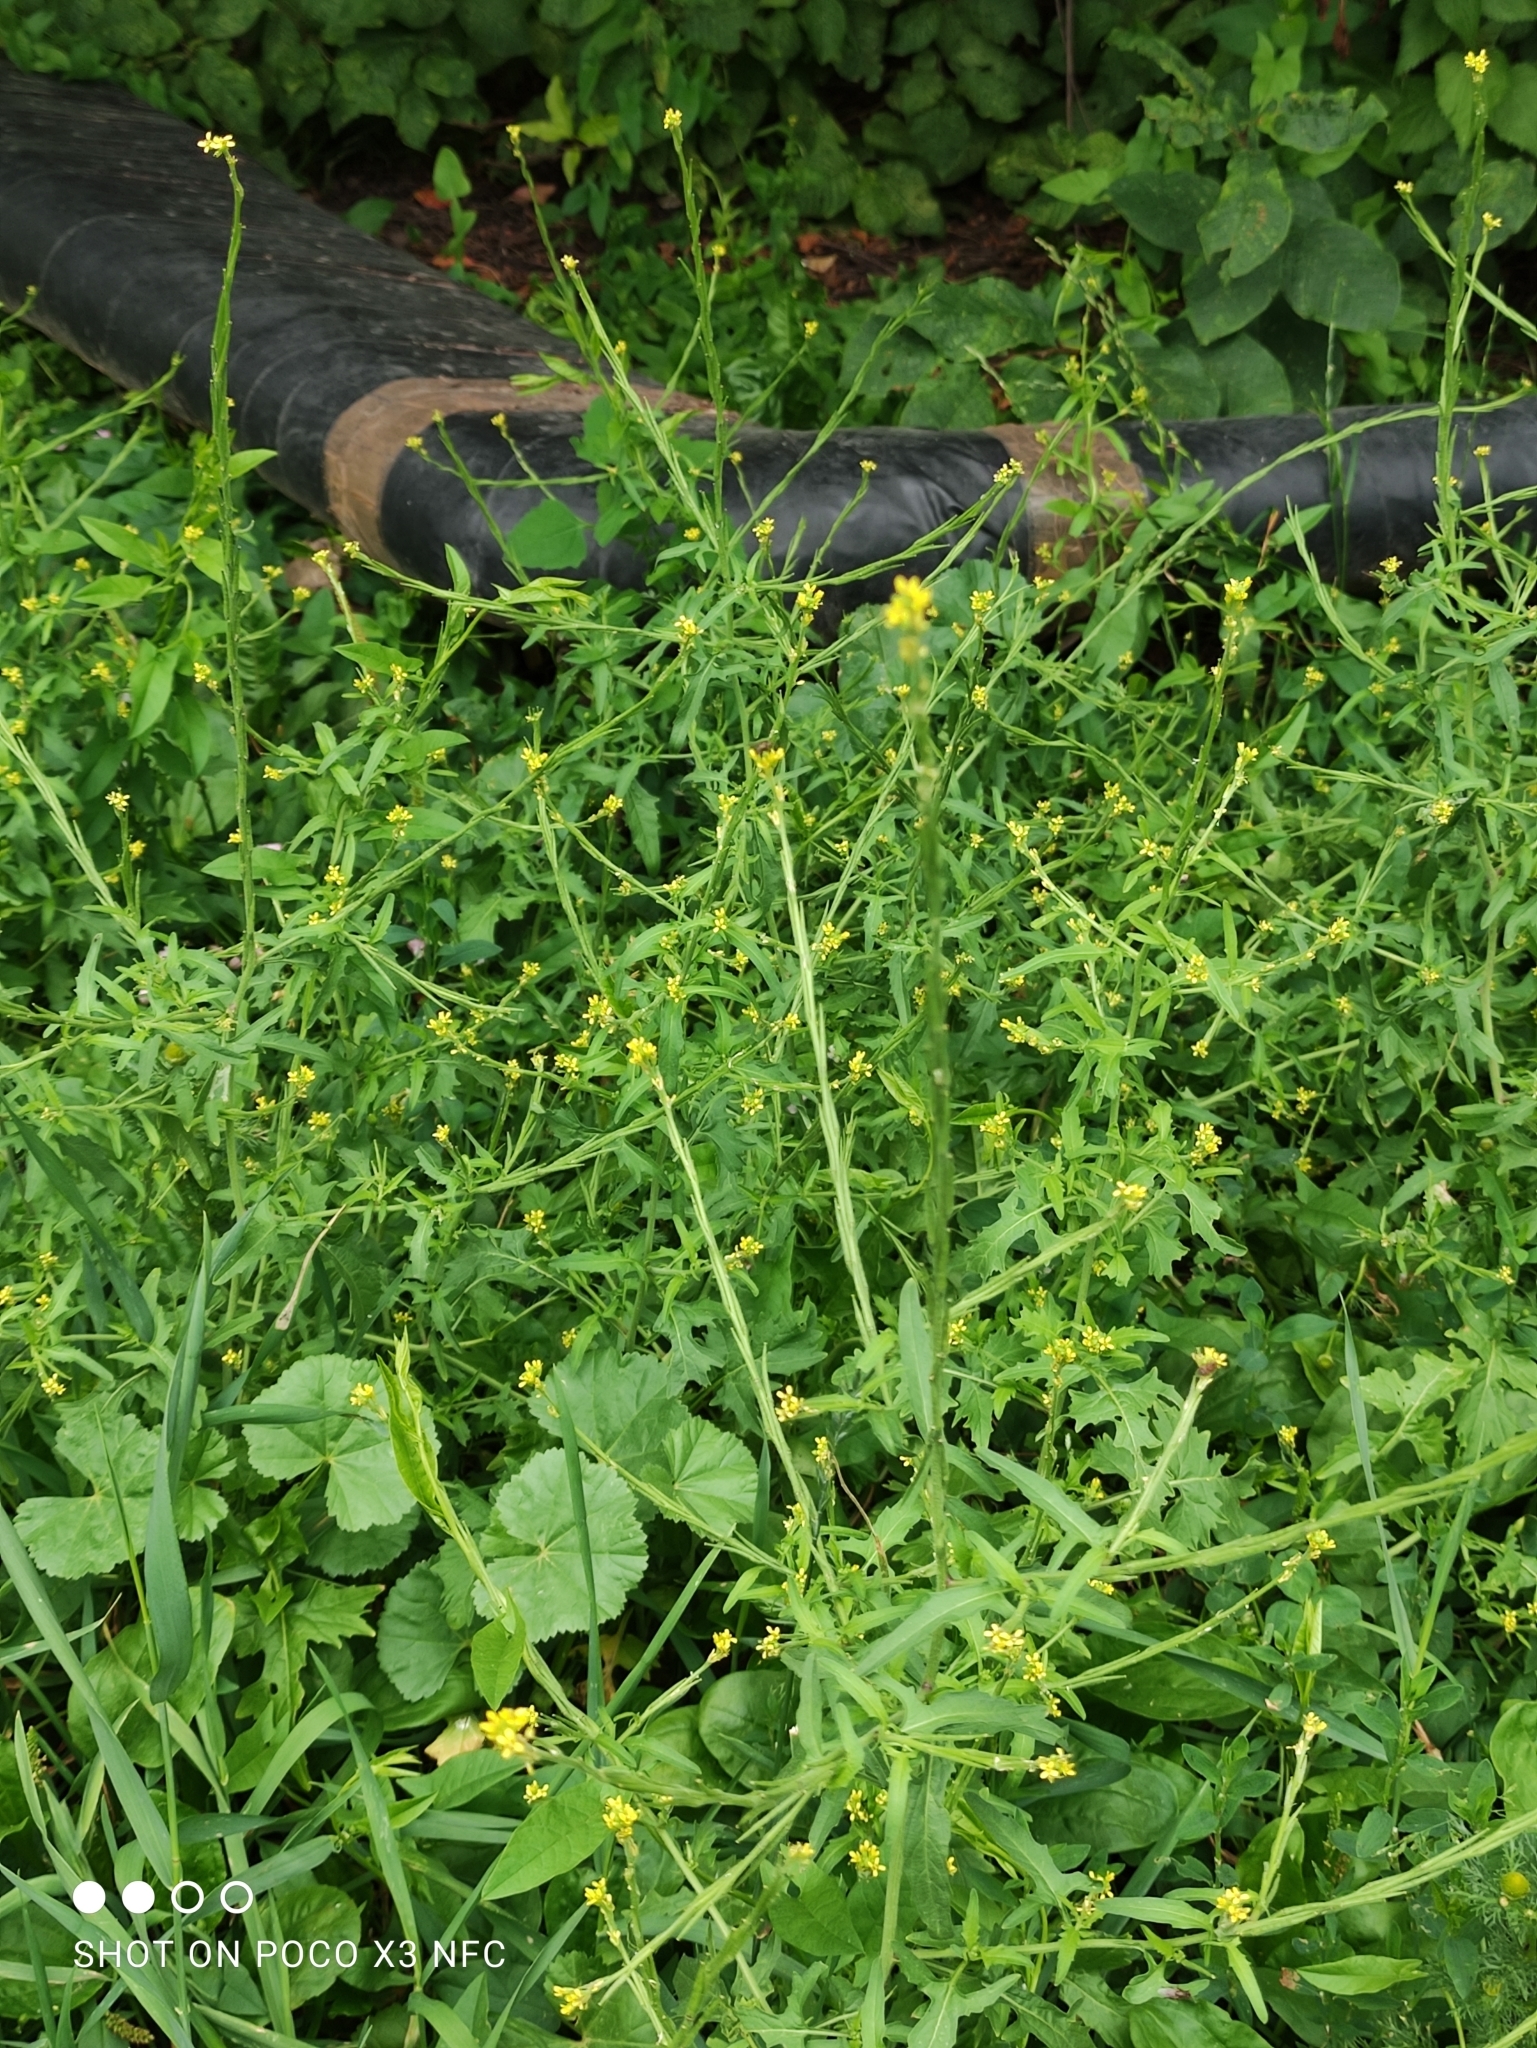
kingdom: Plantae
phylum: Tracheophyta
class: Magnoliopsida
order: Brassicales
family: Brassicaceae
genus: Sisymbrium
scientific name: Sisymbrium officinale
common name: Hedge mustard
